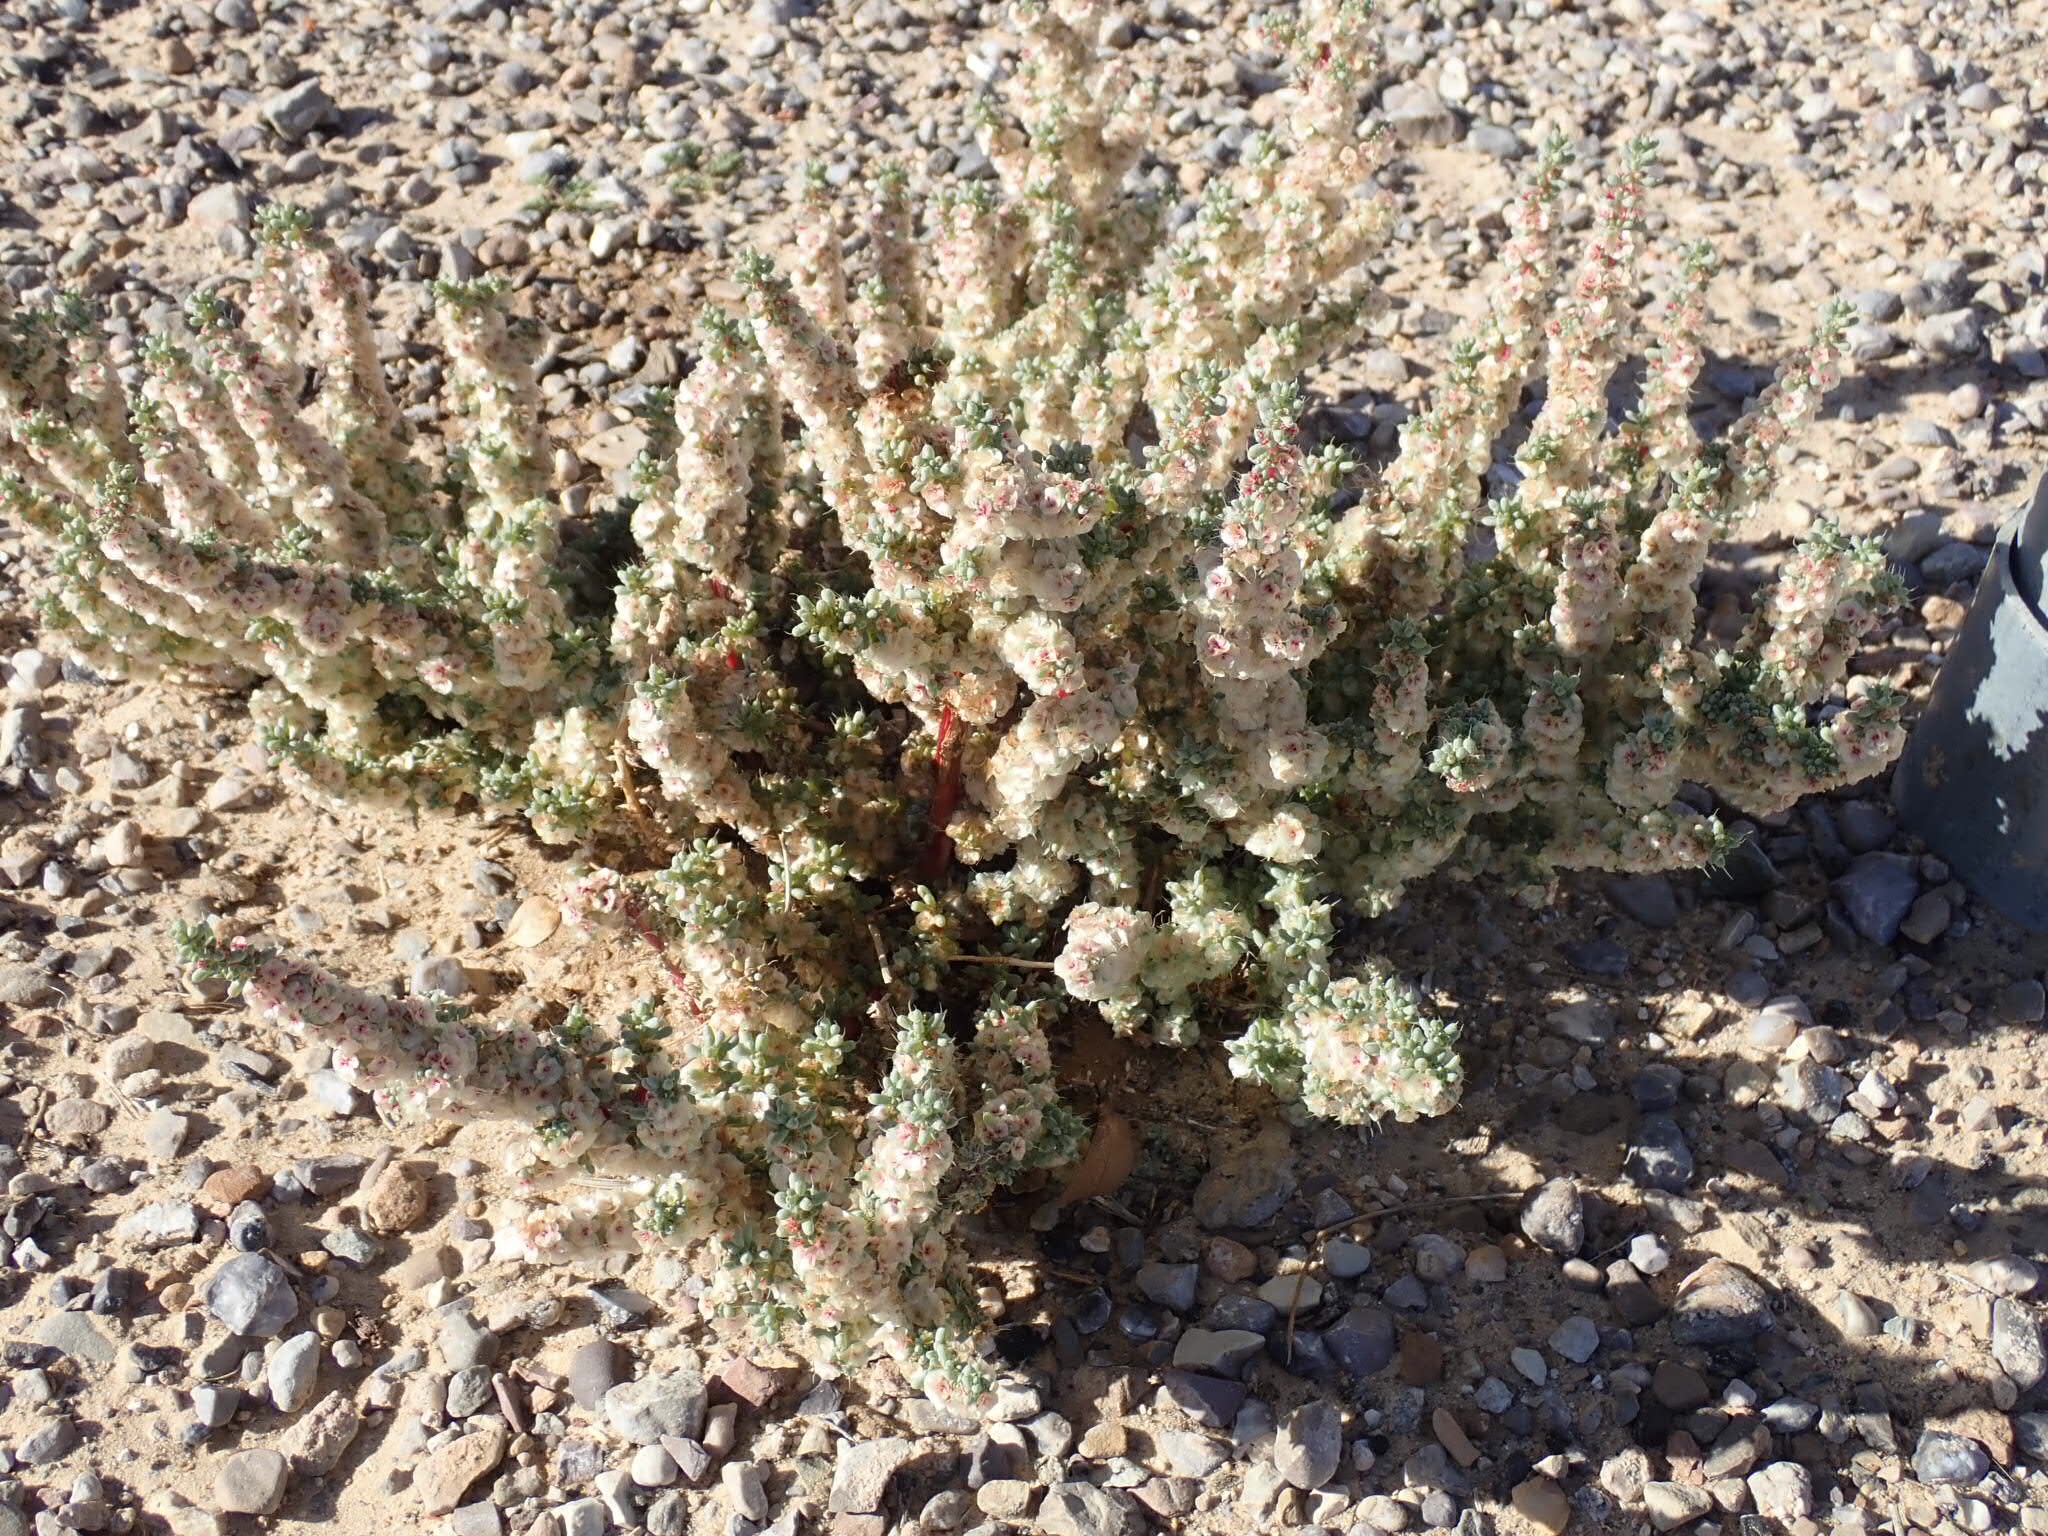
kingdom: Plantae
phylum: Tracheophyta
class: Magnoliopsida
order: Caryophyllales
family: Amaranthaceae
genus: Halogeton
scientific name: Halogeton glomeratus
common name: Saltlover
